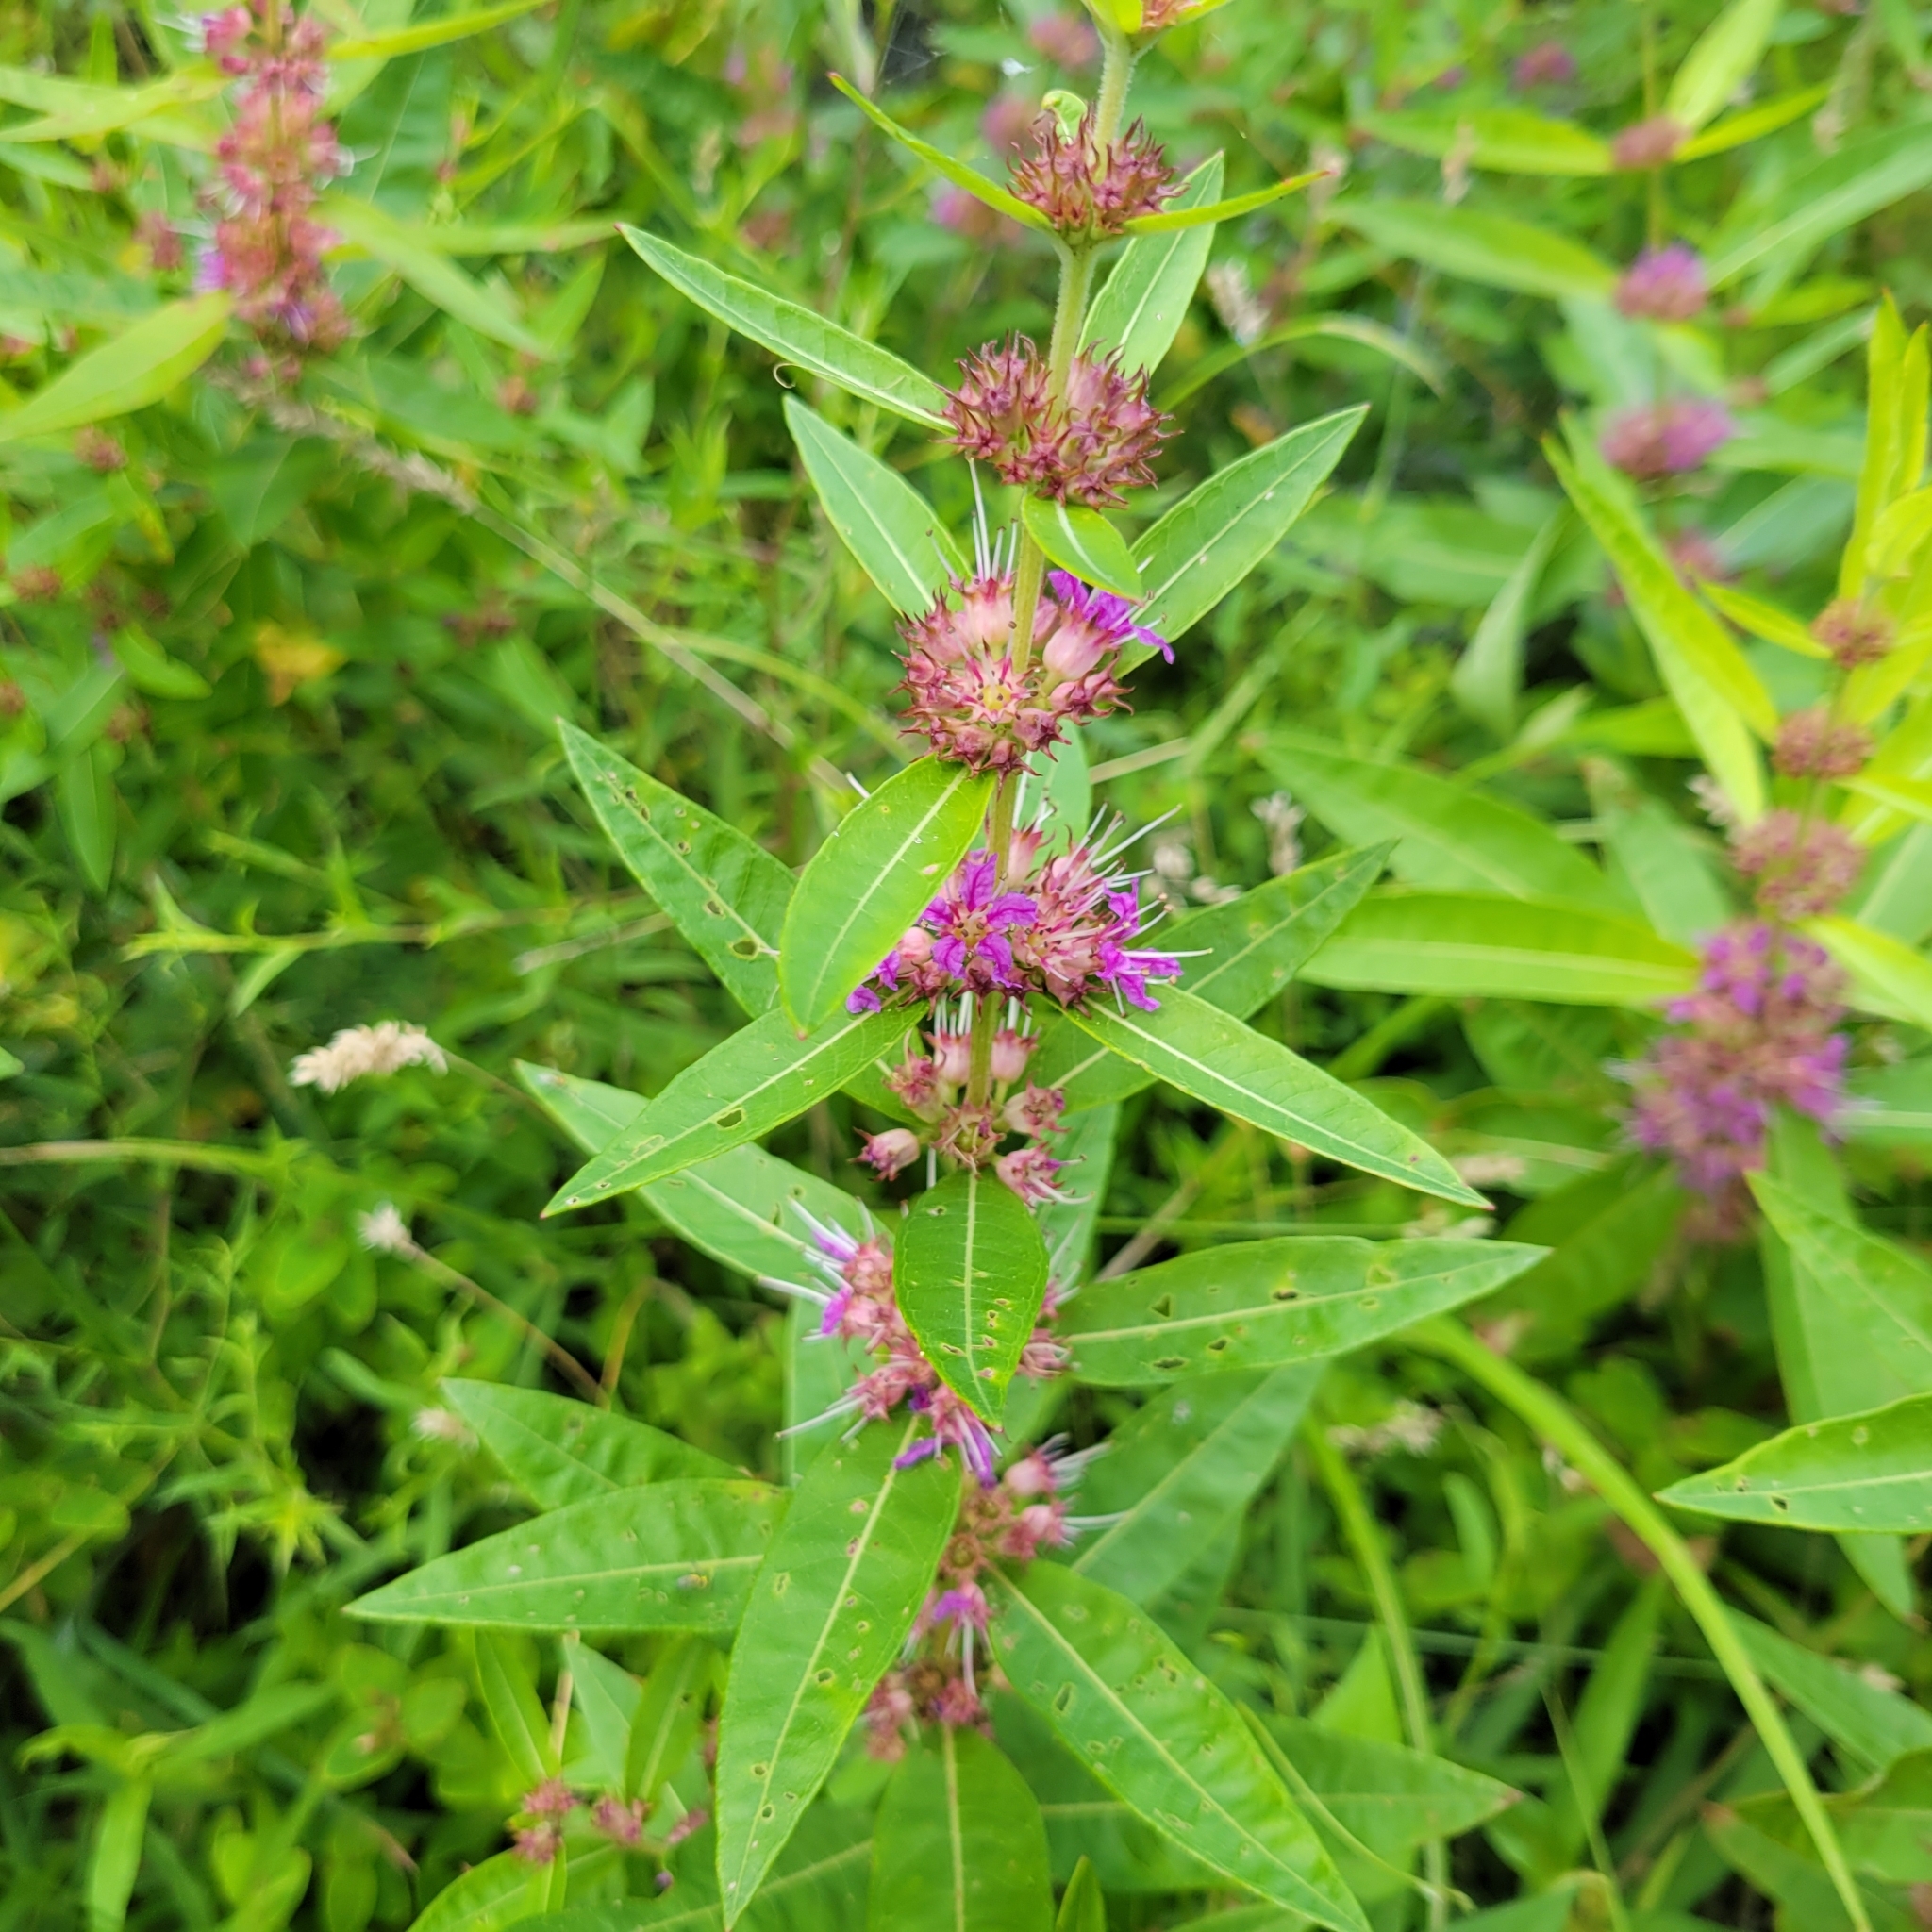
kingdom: Plantae
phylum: Tracheophyta
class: Magnoliopsida
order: Myrtales
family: Lythraceae
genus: Decodon
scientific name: Decodon verticillatus
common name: Hairy swamp loosestrife
